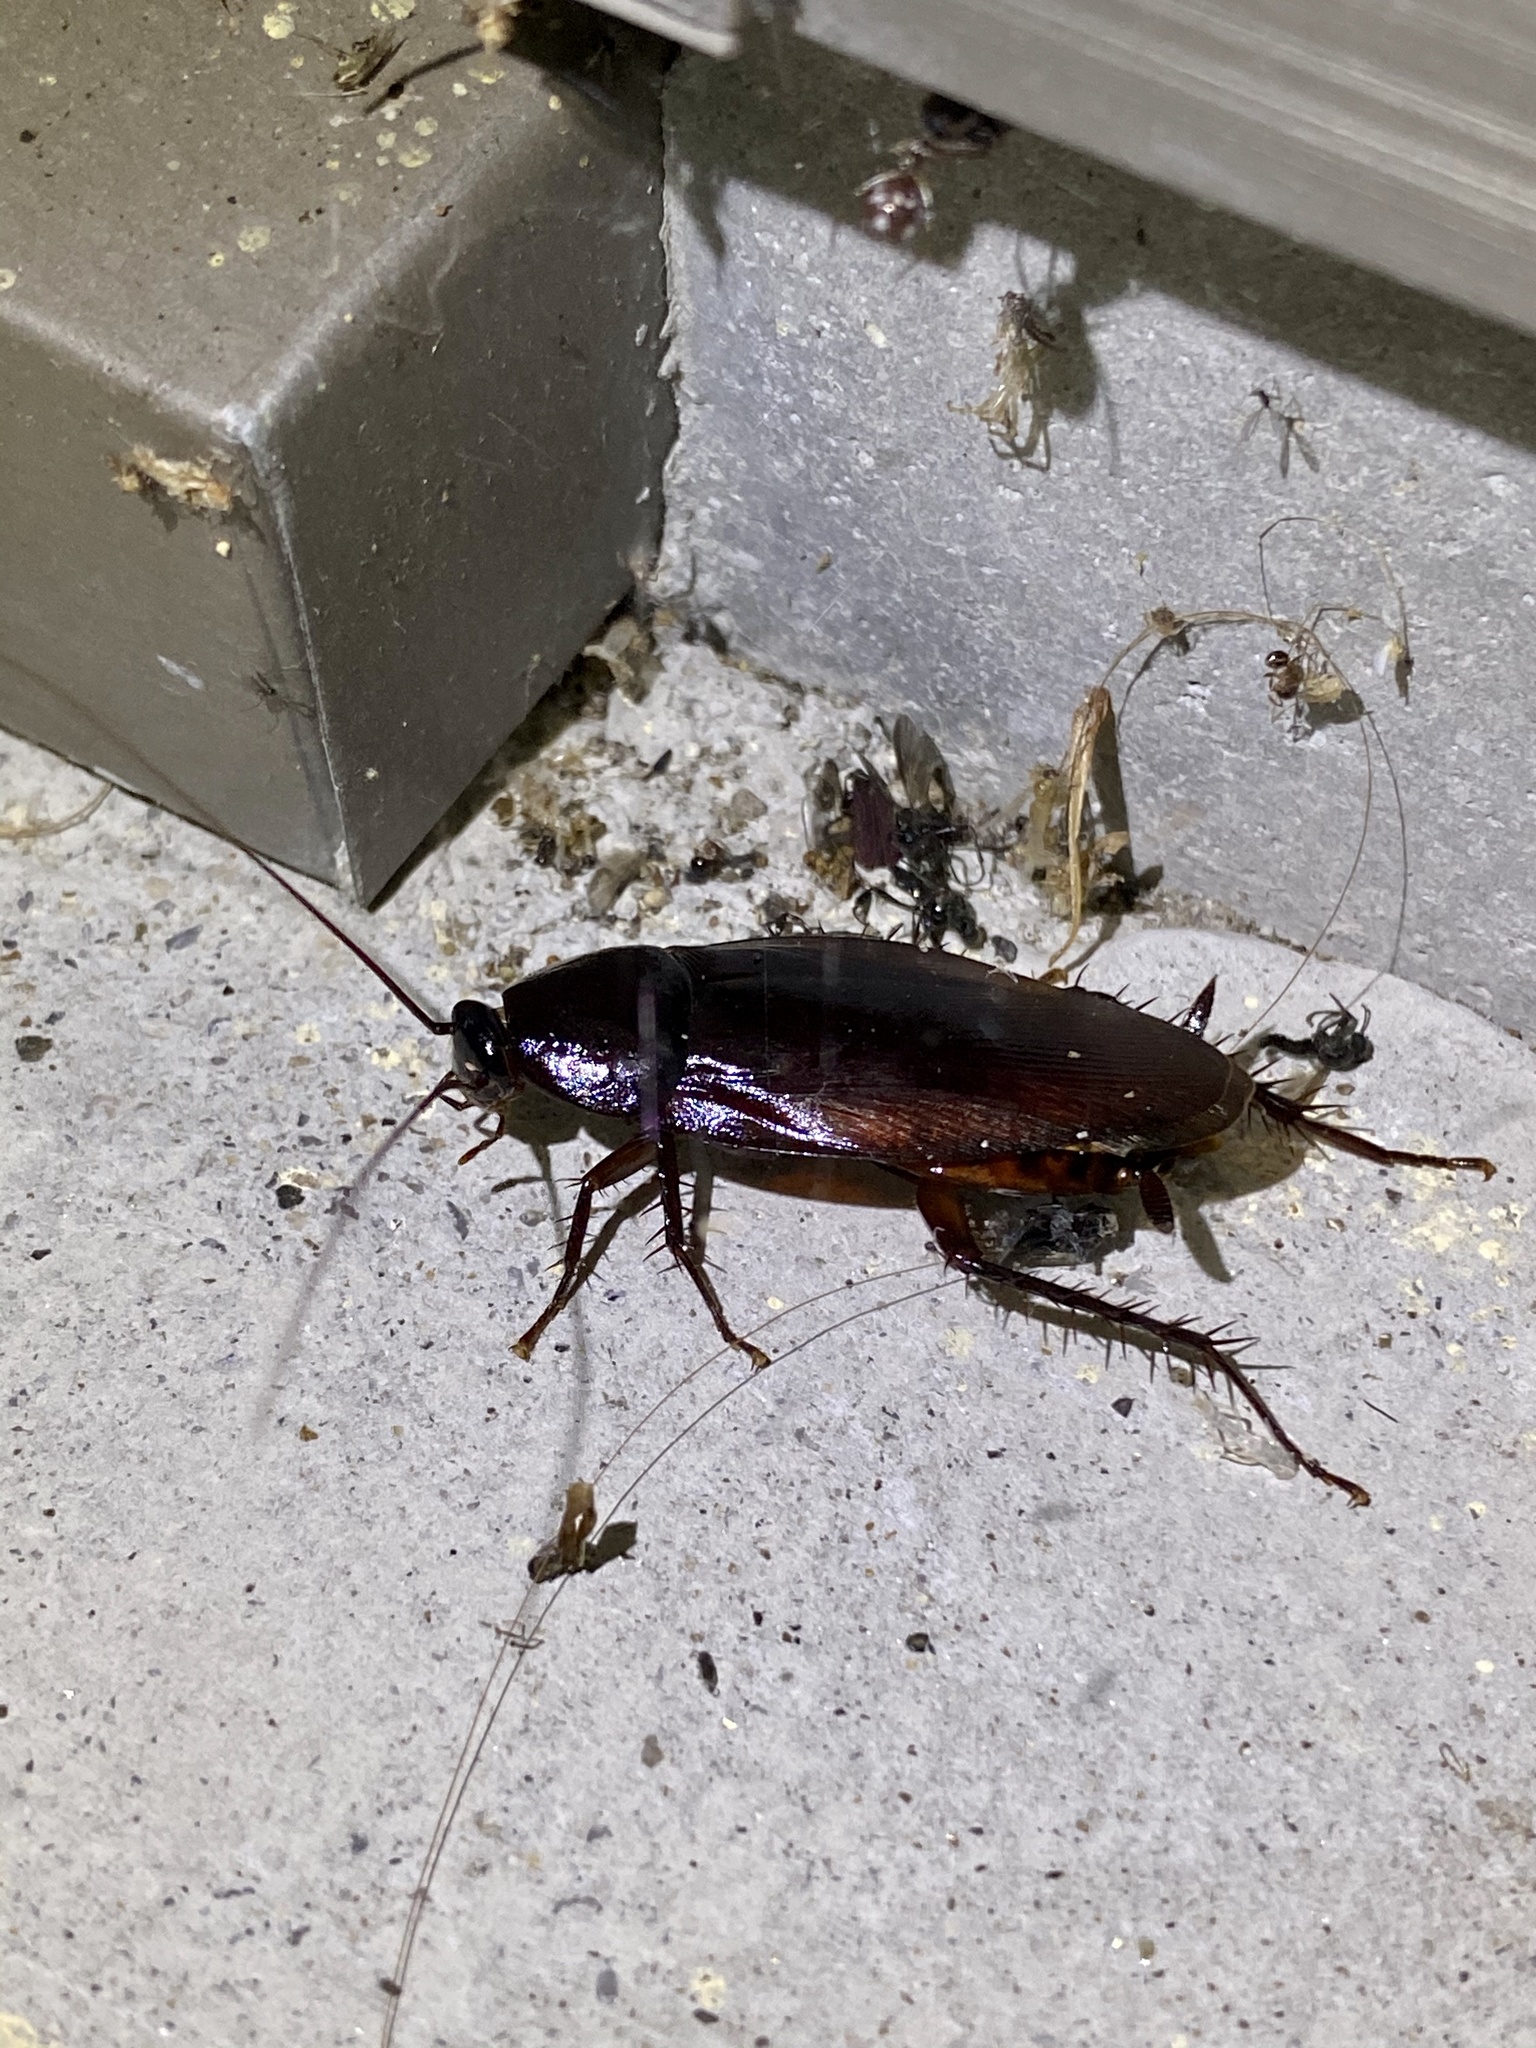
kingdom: Animalia
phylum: Arthropoda
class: Insecta
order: Blattodea
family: Blattidae
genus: Periplaneta
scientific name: Periplaneta fuliginosa
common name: Smokeybrown cockroad
